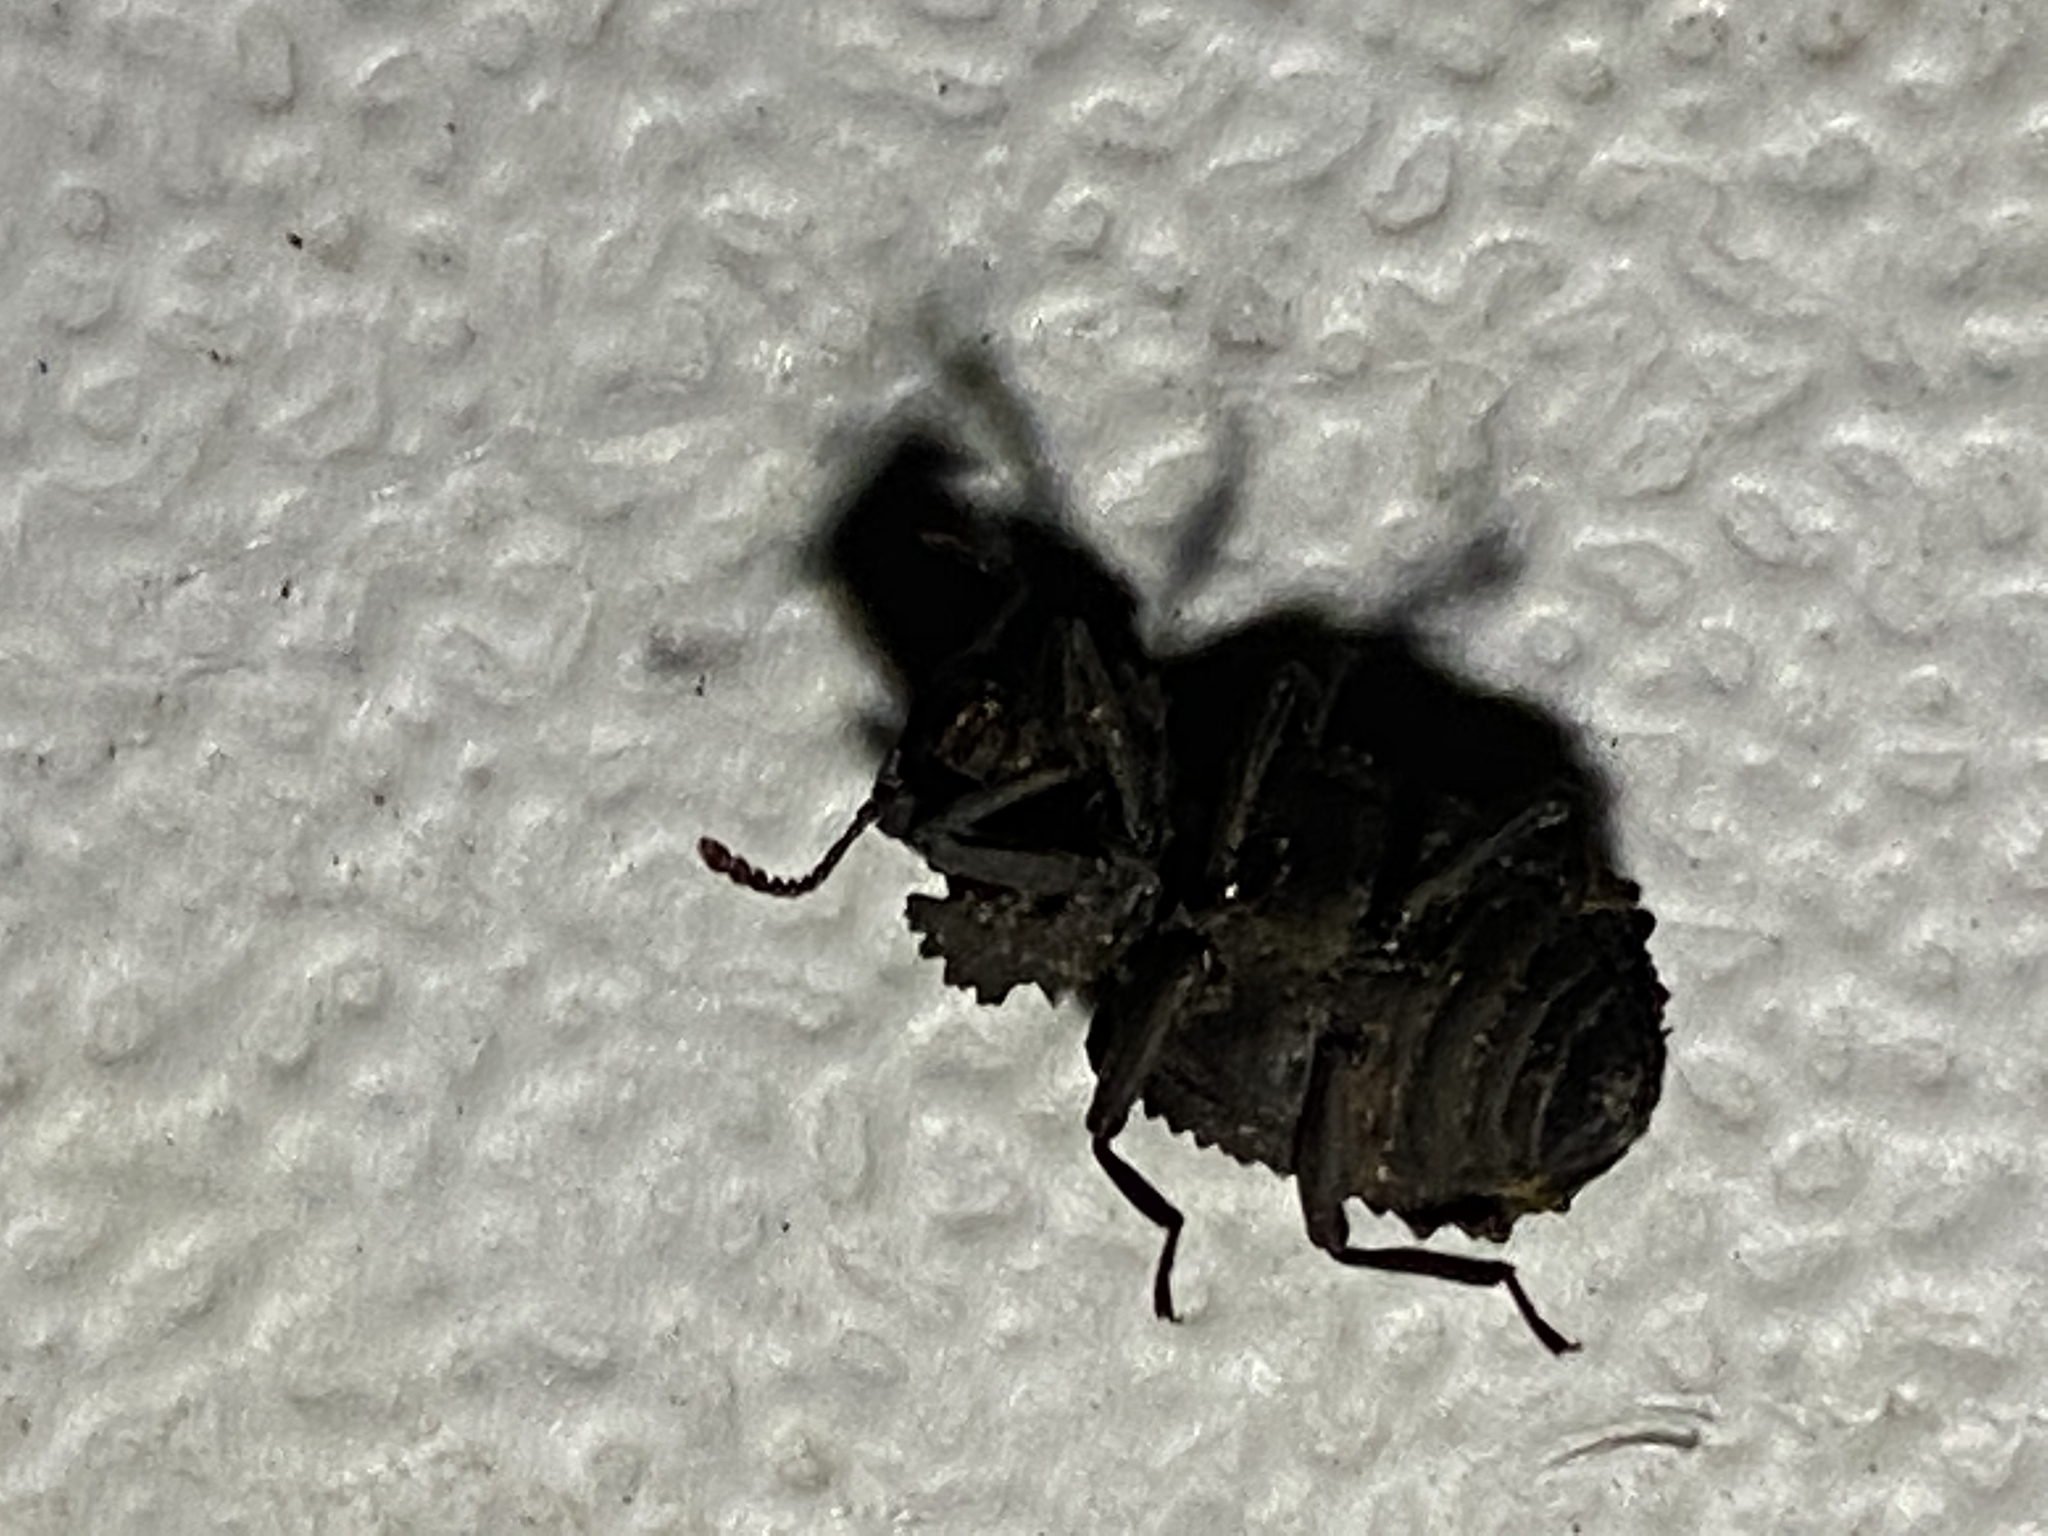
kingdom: Animalia
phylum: Arthropoda
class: Insecta
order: Coleoptera
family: Tenebrionidae
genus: Gnatocerus
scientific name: Gnatocerus cornutus
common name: Broad-horned flour beetle
